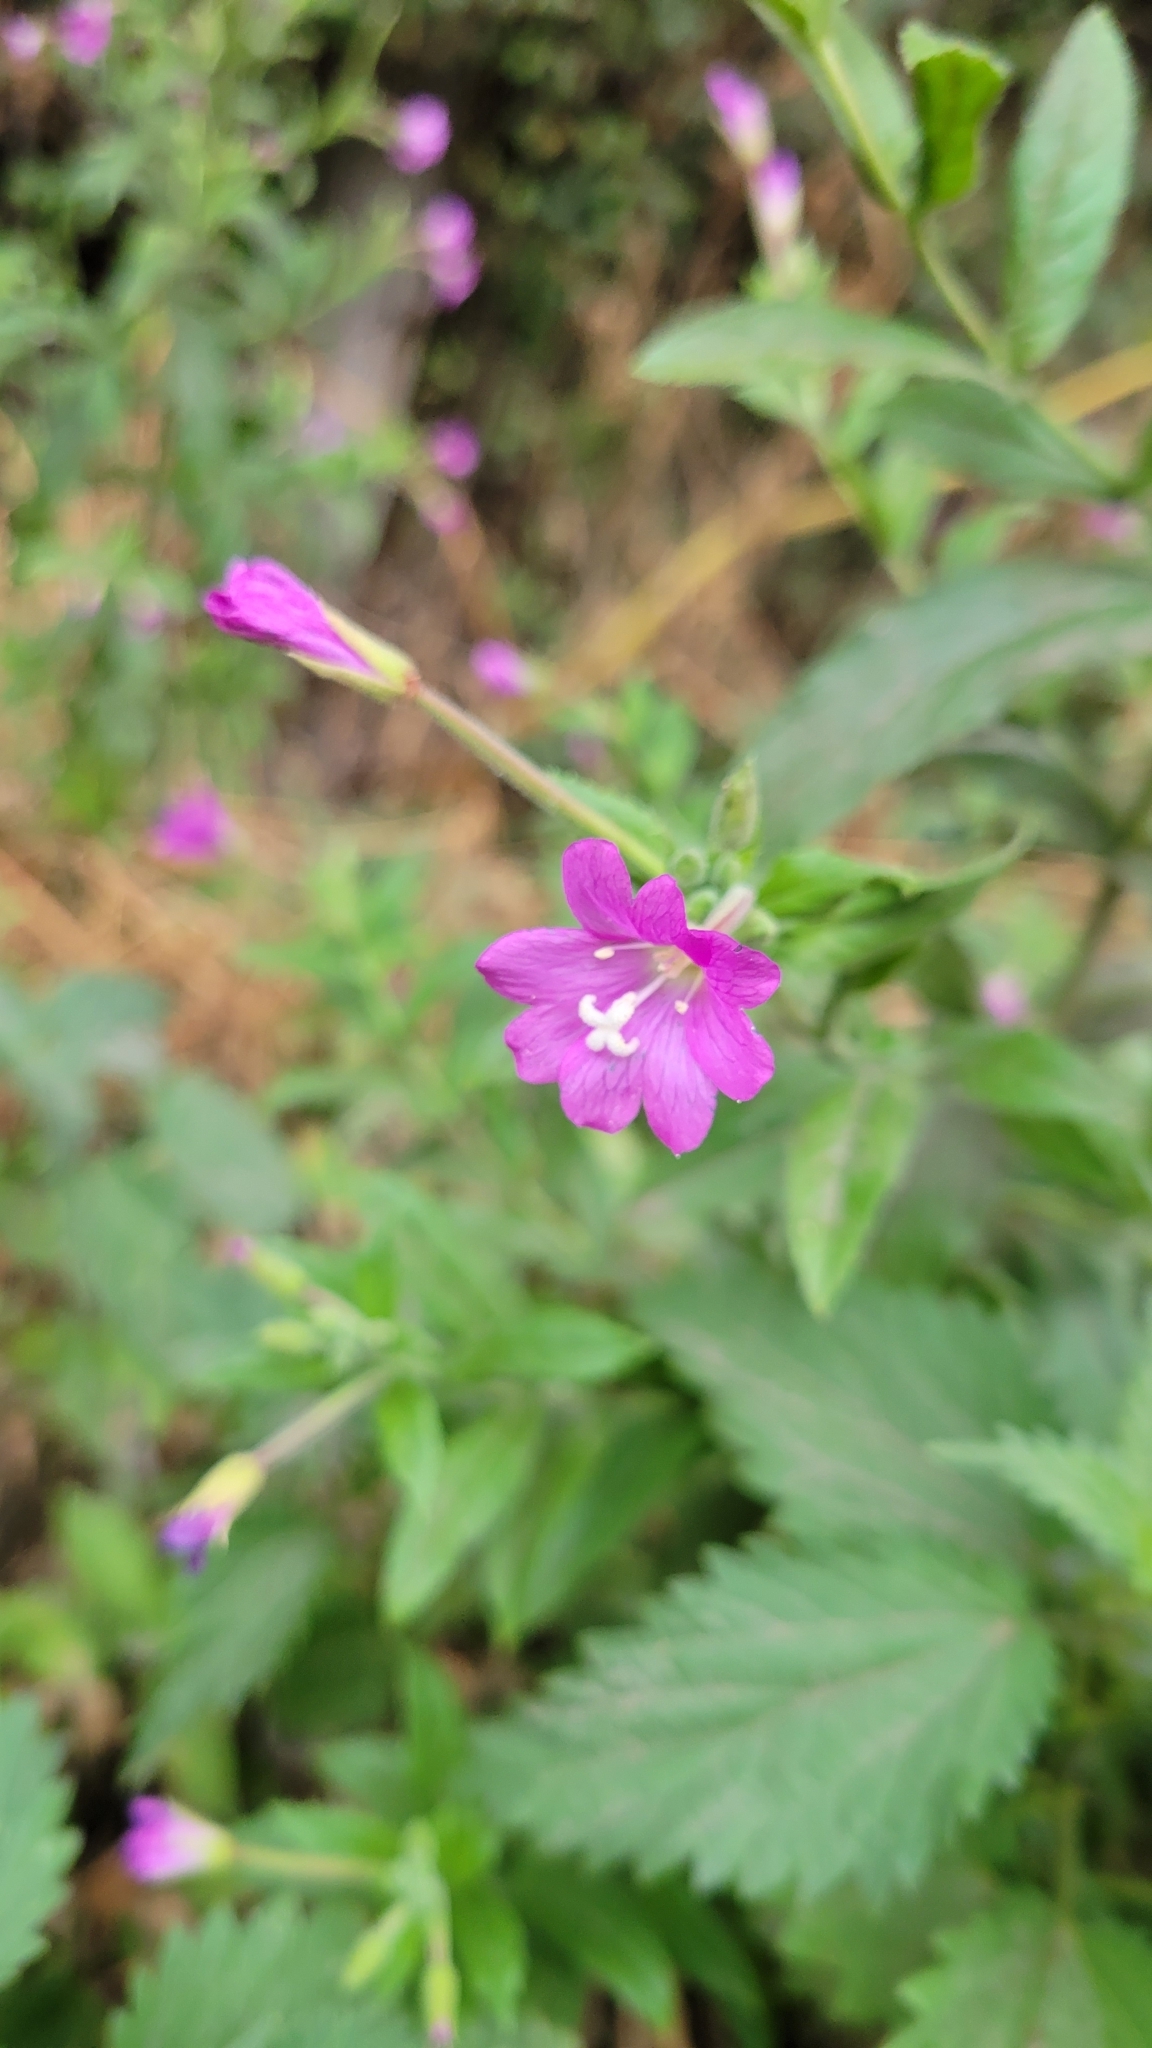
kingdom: Plantae
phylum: Tracheophyta
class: Magnoliopsida
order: Myrtales
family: Onagraceae
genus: Epilobium
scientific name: Epilobium hirsutum
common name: Great willowherb
